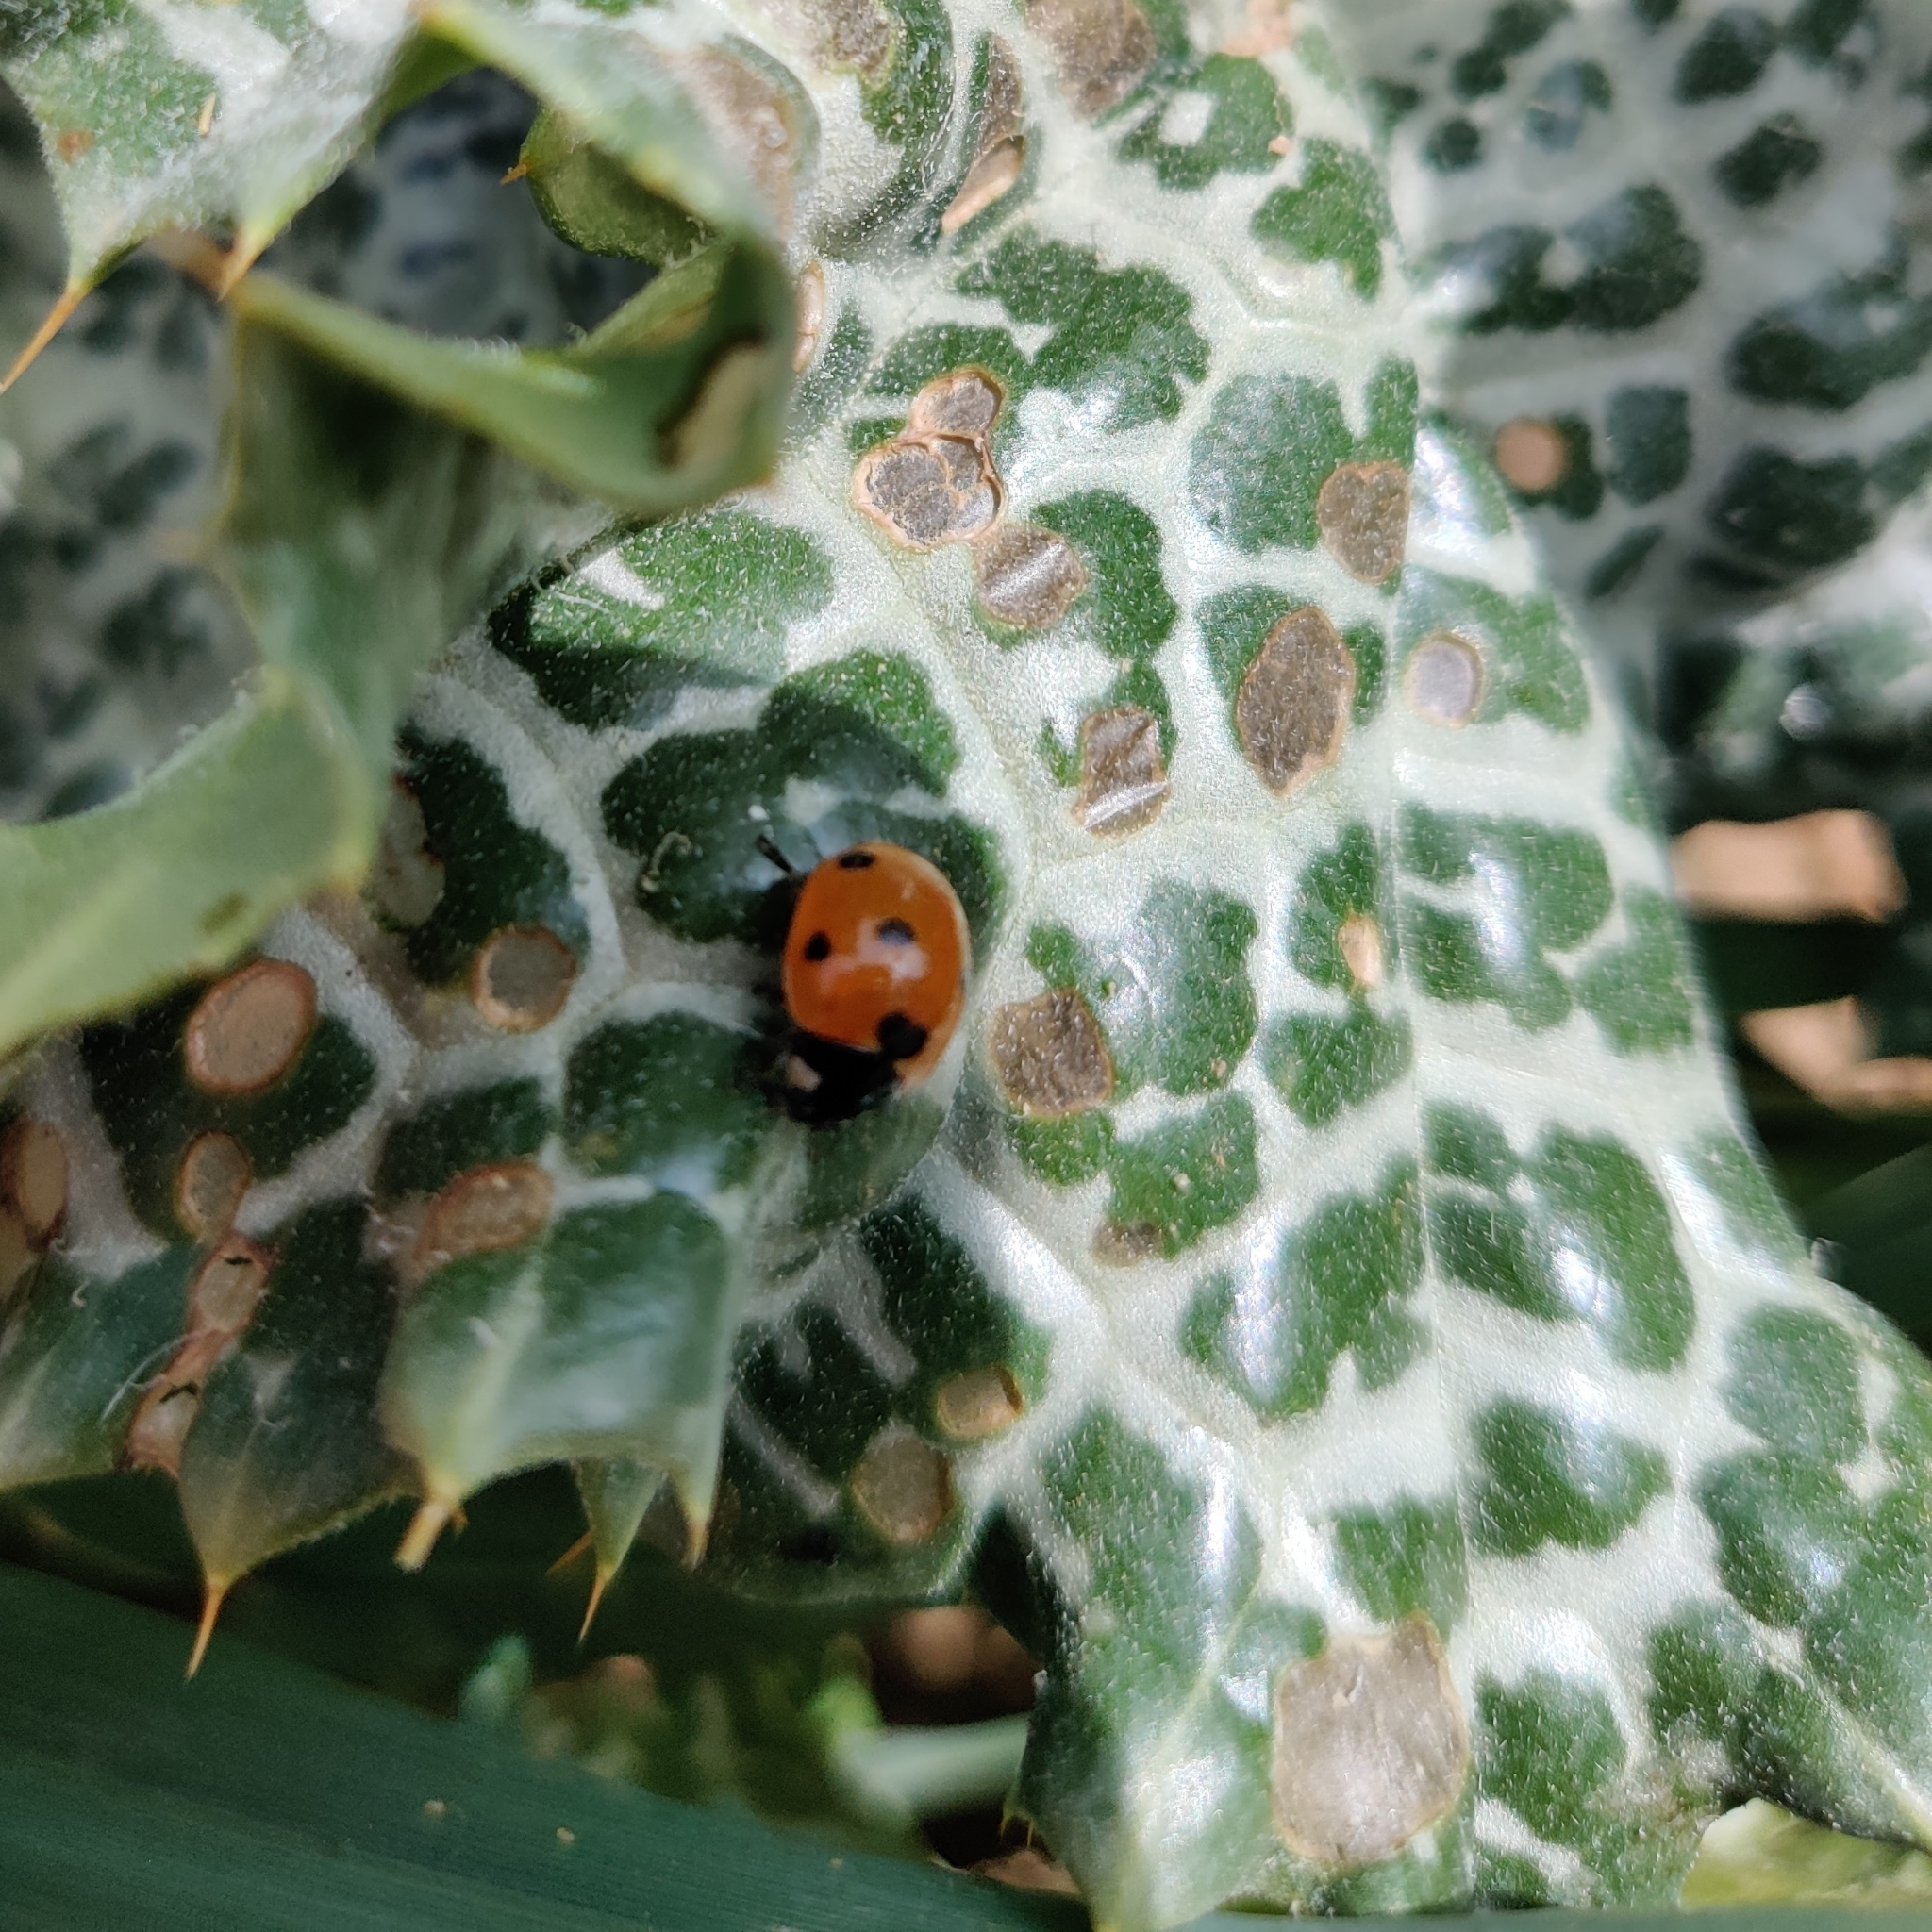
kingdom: Animalia
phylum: Arthropoda
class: Insecta
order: Coleoptera
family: Coccinellidae
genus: Coccinella
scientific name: Coccinella septempunctata
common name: Sevenspotted lady beetle
